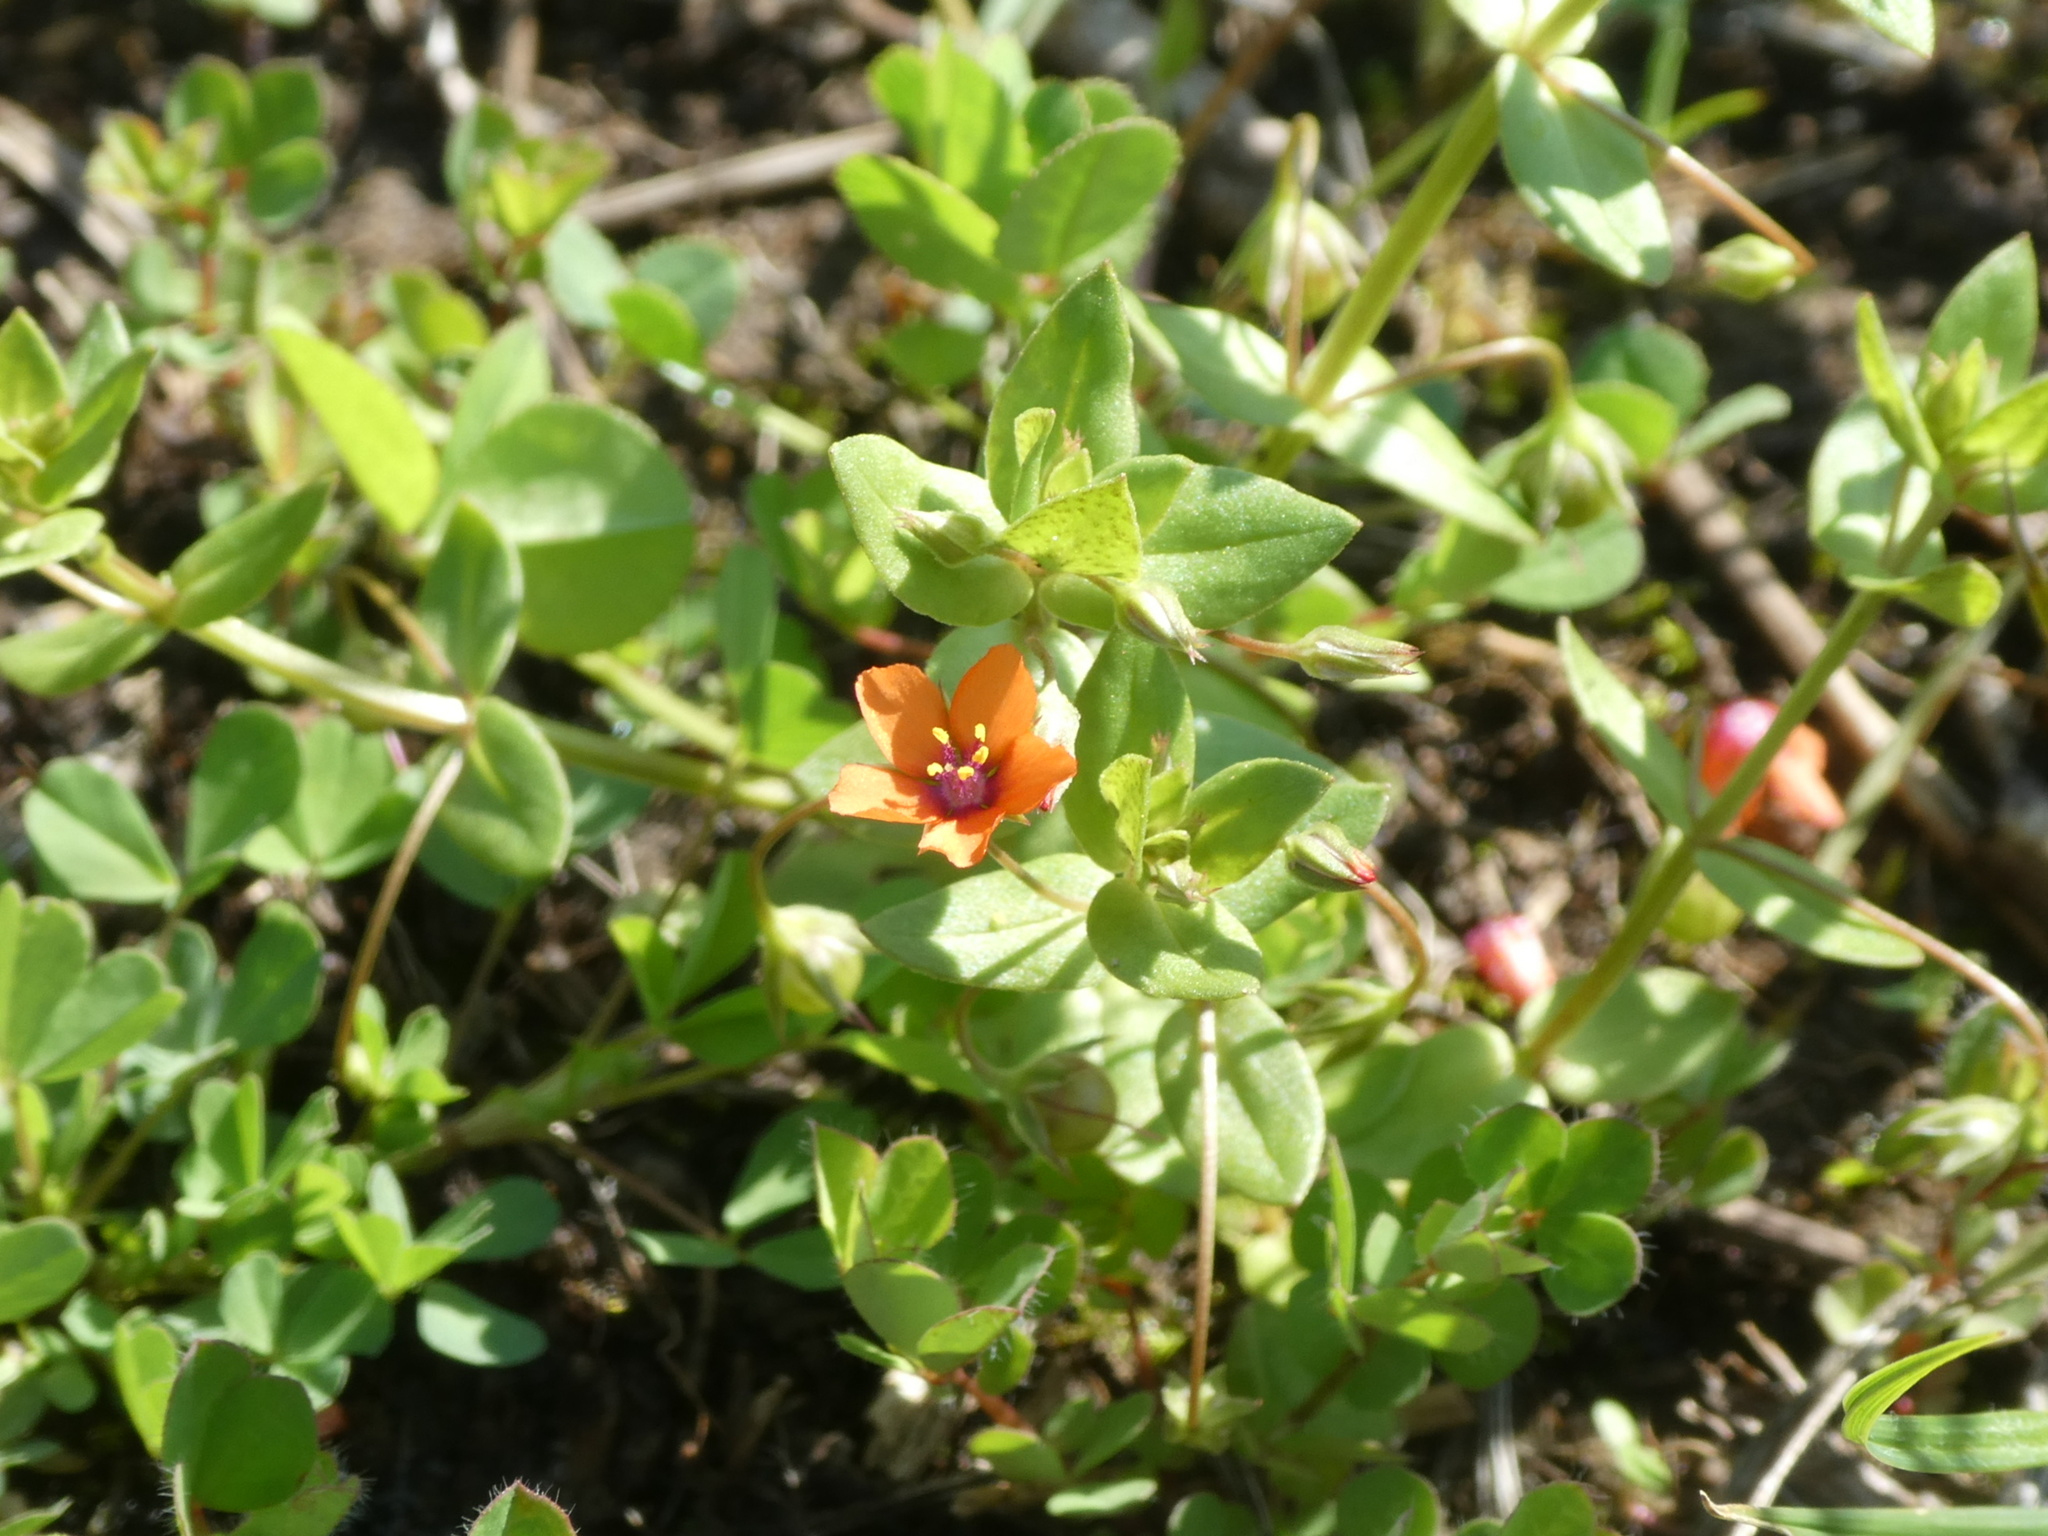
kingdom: Plantae
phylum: Tracheophyta
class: Magnoliopsida
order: Ericales
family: Primulaceae
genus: Lysimachia
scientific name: Lysimachia arvensis
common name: Scarlet pimpernel
